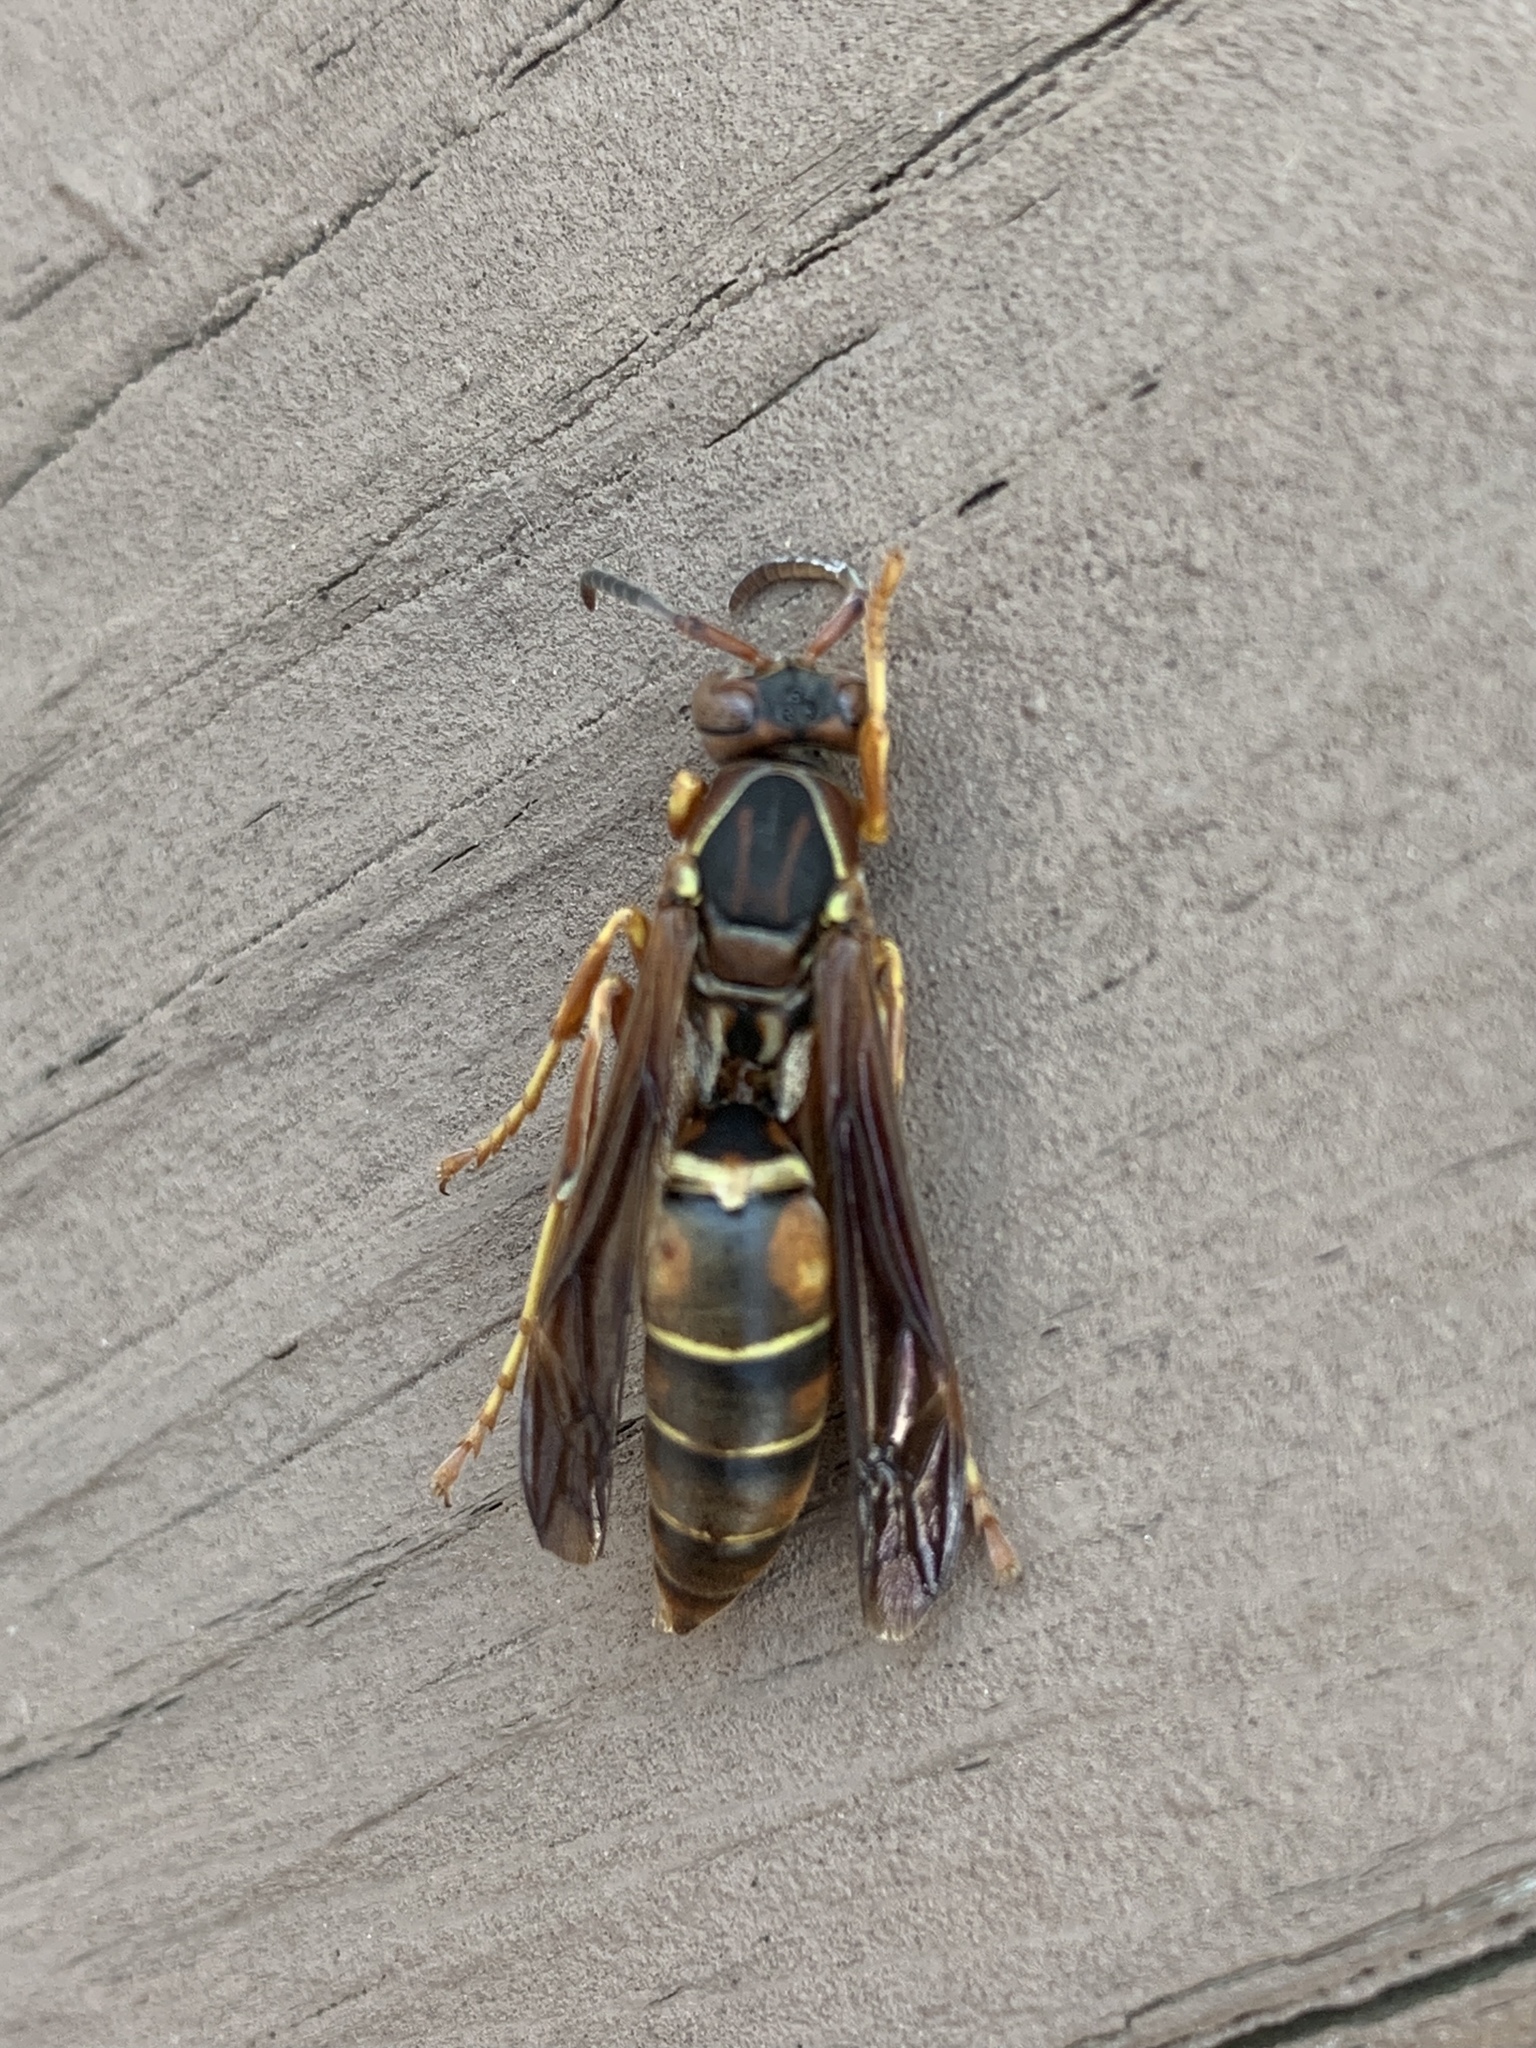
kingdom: Animalia
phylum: Arthropoda
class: Insecta
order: Hymenoptera
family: Eumenidae
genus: Polistes
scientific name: Polistes fuscatus
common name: Dark paper wasp
